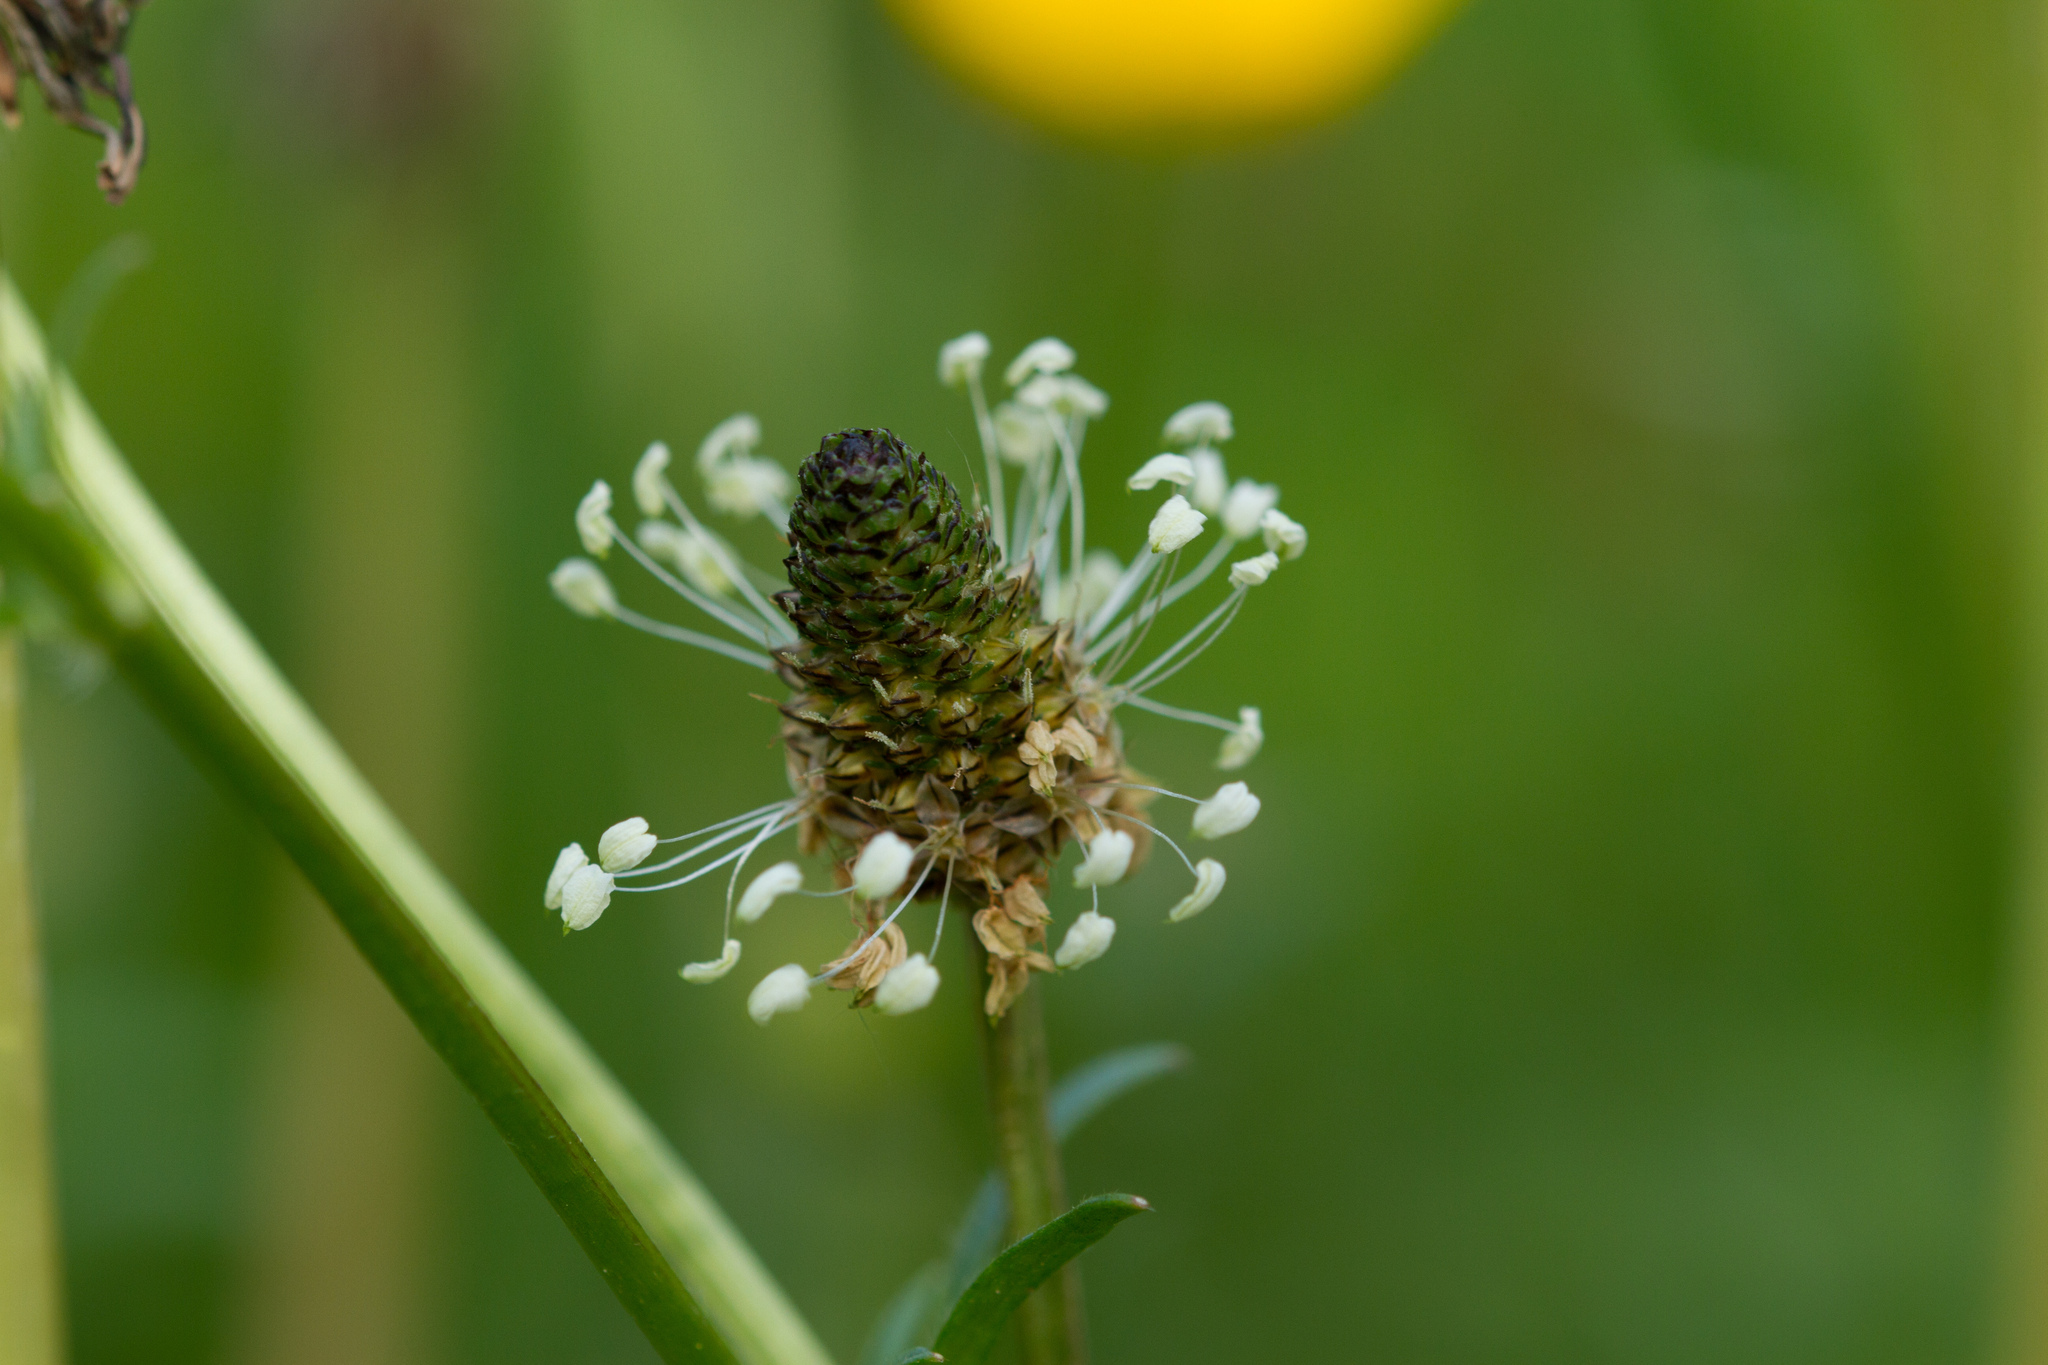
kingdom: Plantae
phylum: Tracheophyta
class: Magnoliopsida
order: Lamiales
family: Plantaginaceae
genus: Plantago
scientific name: Plantago lanceolata
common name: Ribwort plantain
